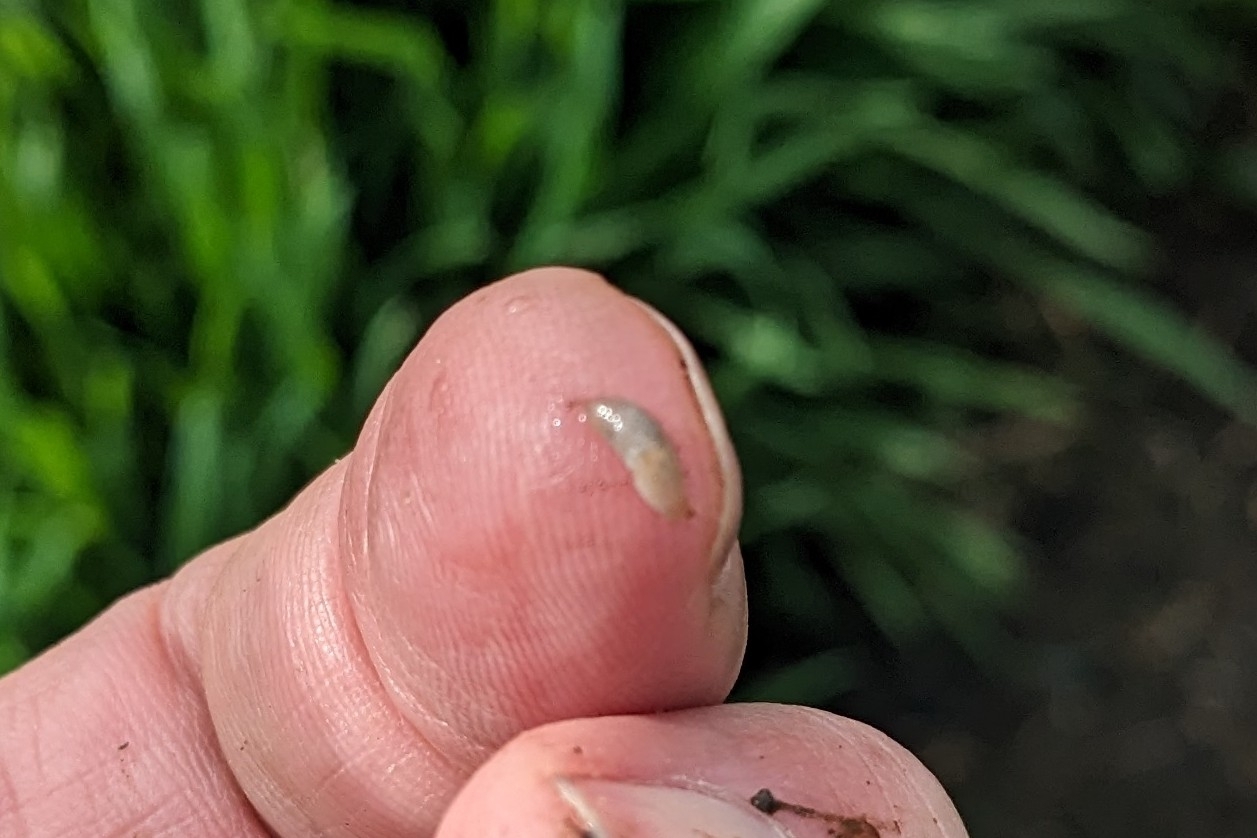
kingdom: Animalia
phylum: Mollusca
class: Gastropoda
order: Stylommatophora
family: Agriolimacidae
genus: Deroceras
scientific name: Deroceras reticulatum
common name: Gray field slug
